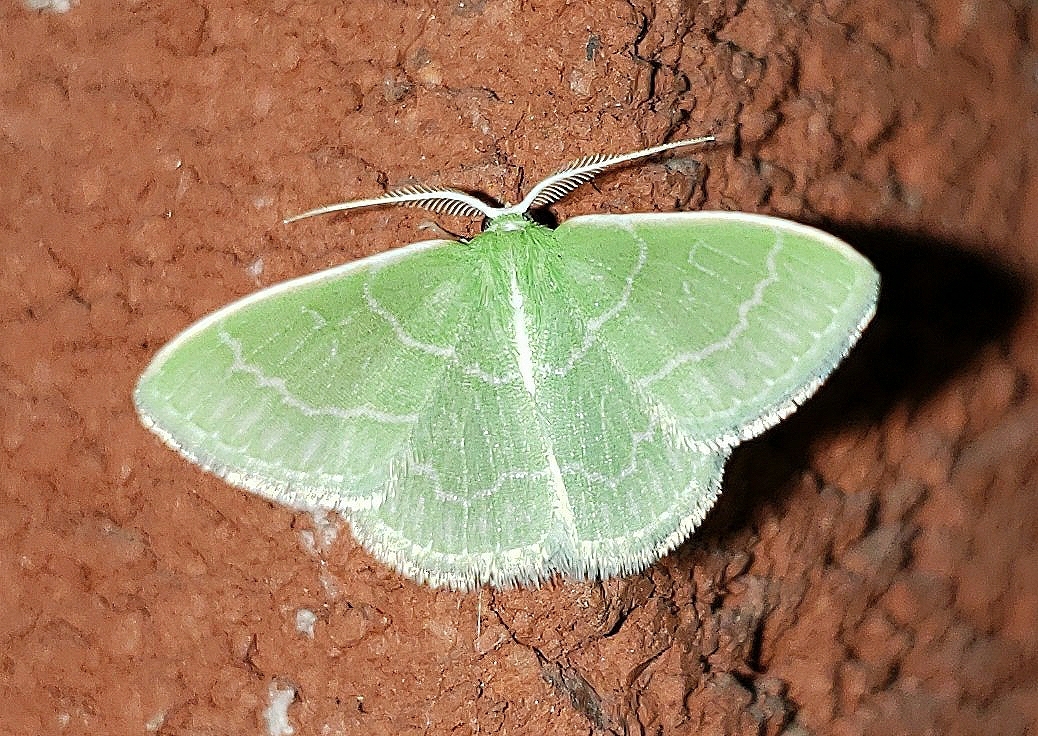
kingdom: Animalia
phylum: Arthropoda
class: Insecta
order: Lepidoptera
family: Geometridae
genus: Synchlora
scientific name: Synchlora aerata
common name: Wavy-lined emerald
